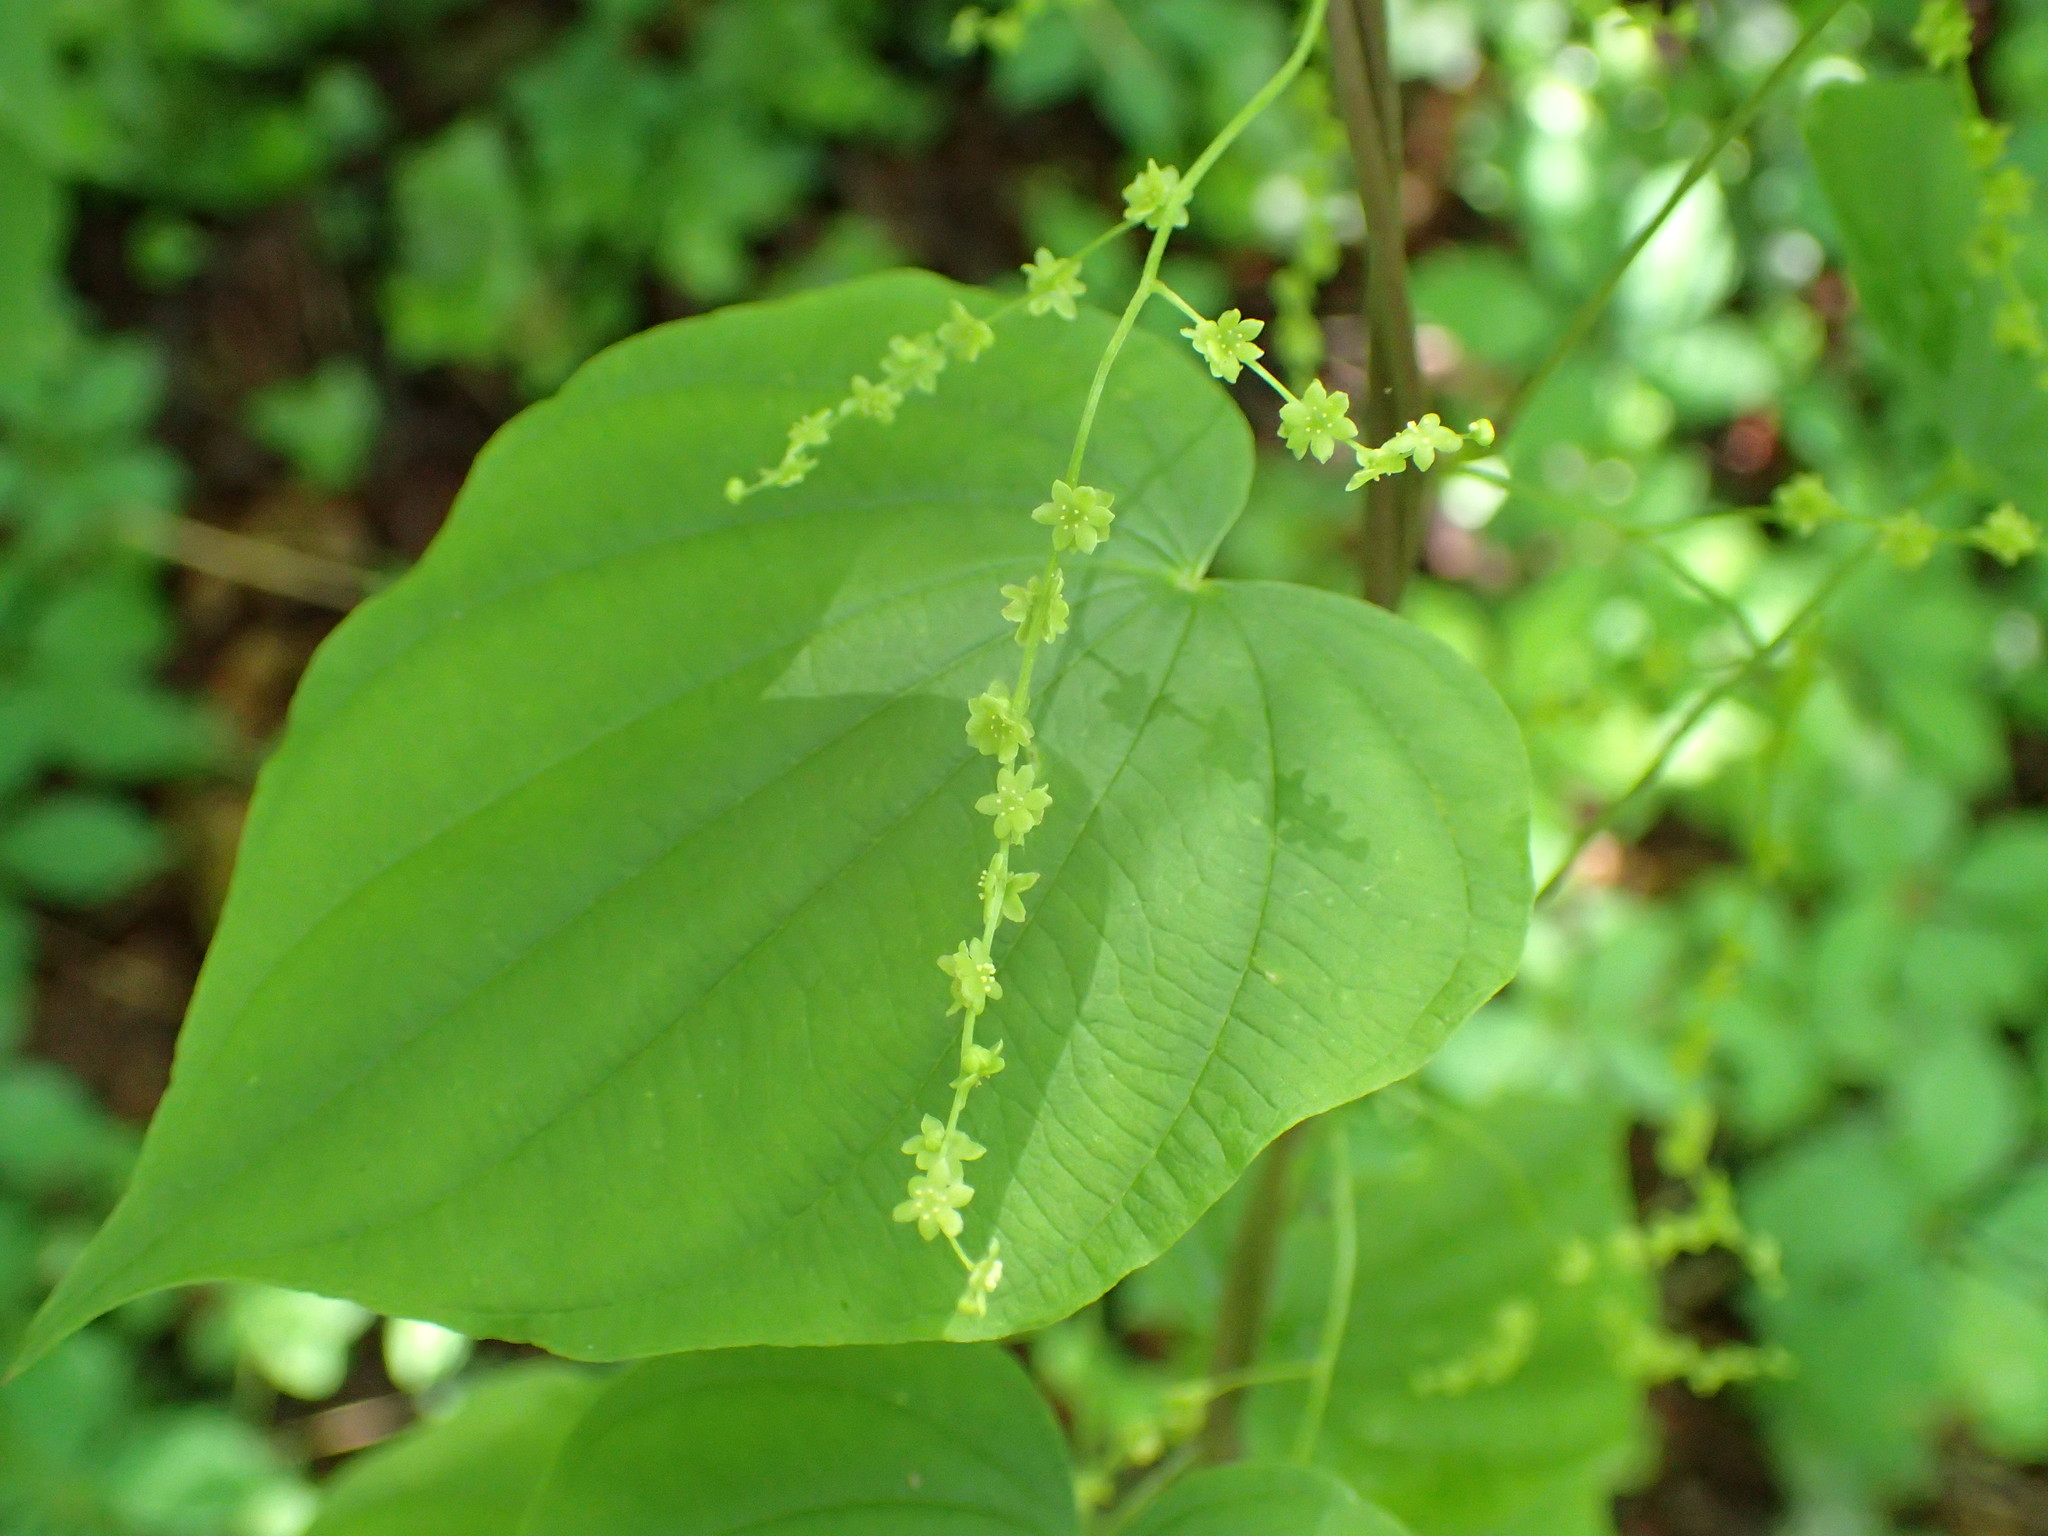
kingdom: Plantae
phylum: Tracheophyta
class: Liliopsida
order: Dioscoreales
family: Dioscoreaceae
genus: Dioscorea
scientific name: Dioscorea villosa
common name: Wild yam
